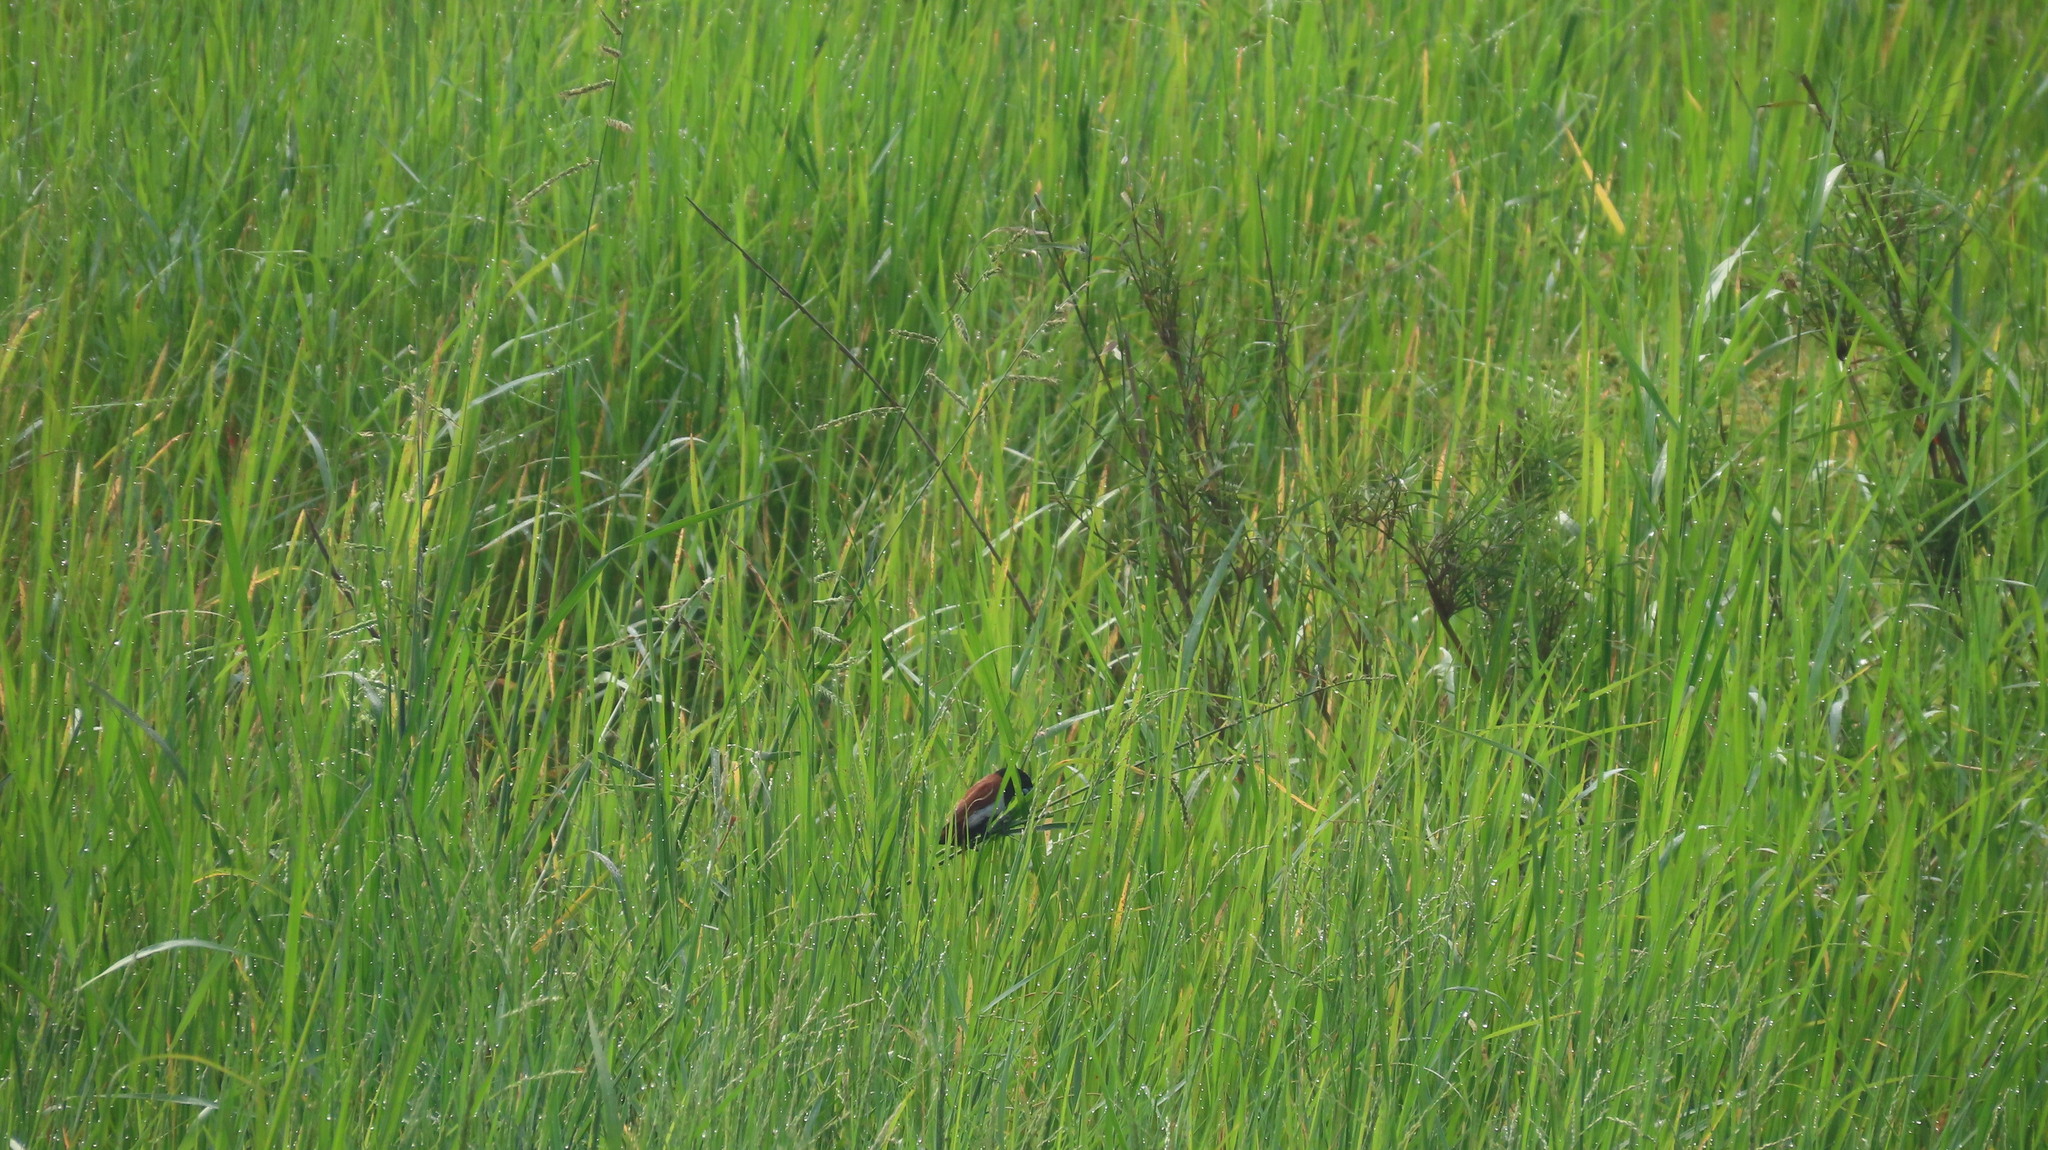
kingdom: Animalia
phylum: Chordata
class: Aves
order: Passeriformes
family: Estrildidae
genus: Lonchura
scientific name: Lonchura malacca
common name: Tricolored munia
